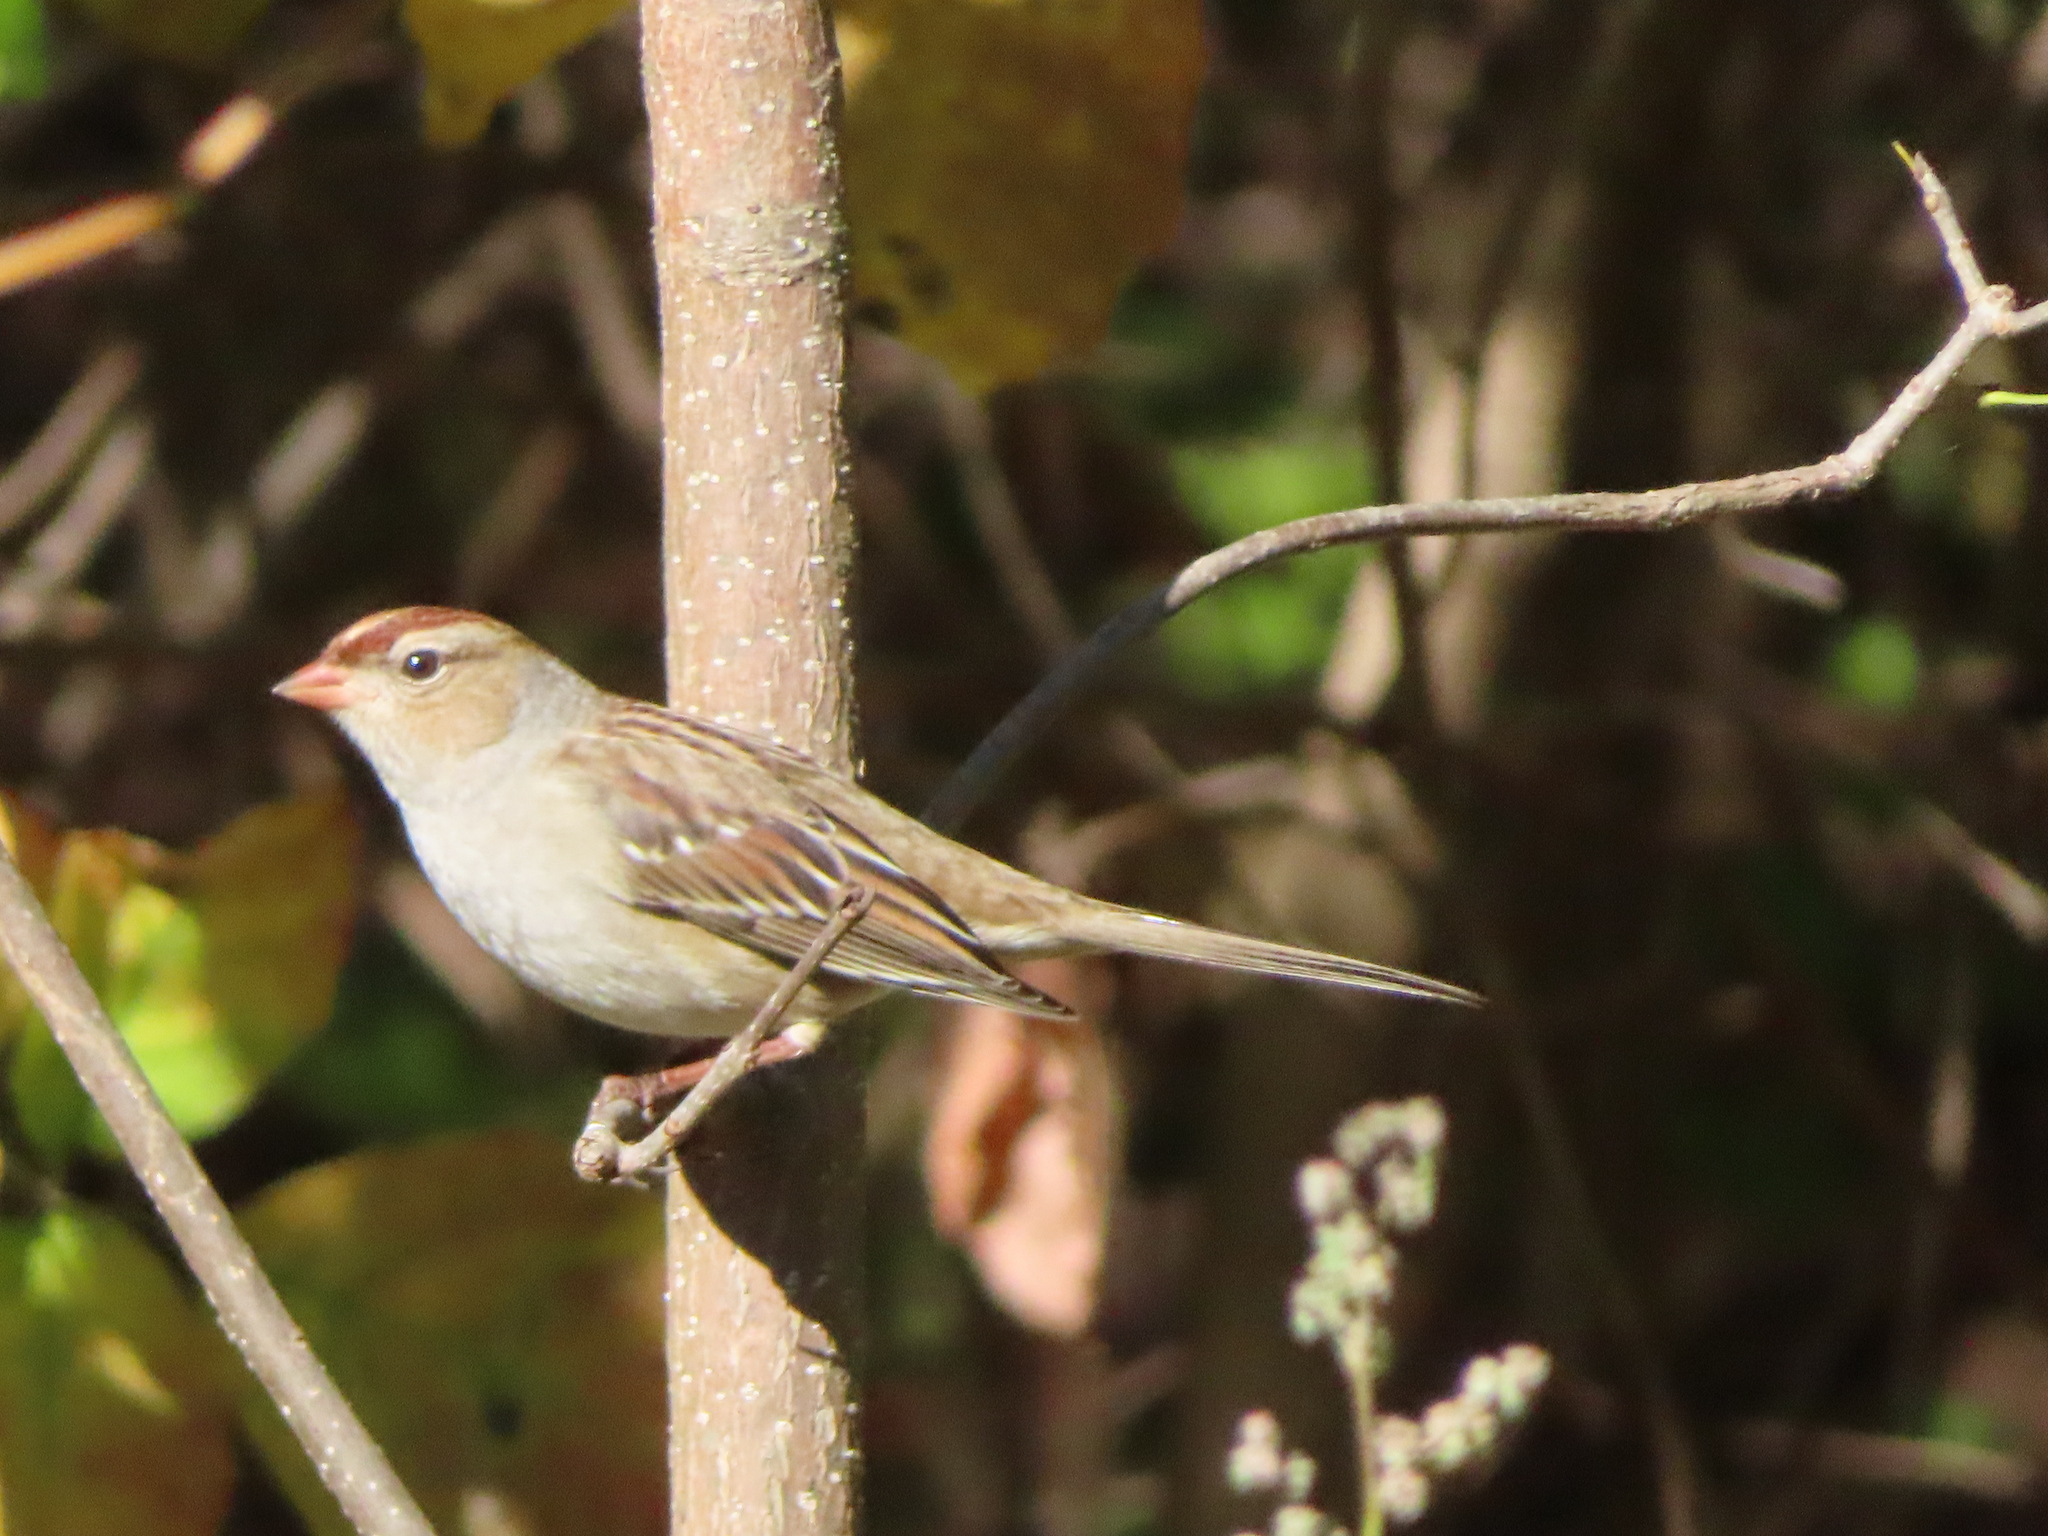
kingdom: Animalia
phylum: Chordata
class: Aves
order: Passeriformes
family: Passerellidae
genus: Zonotrichia
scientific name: Zonotrichia leucophrys
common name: White-crowned sparrow
